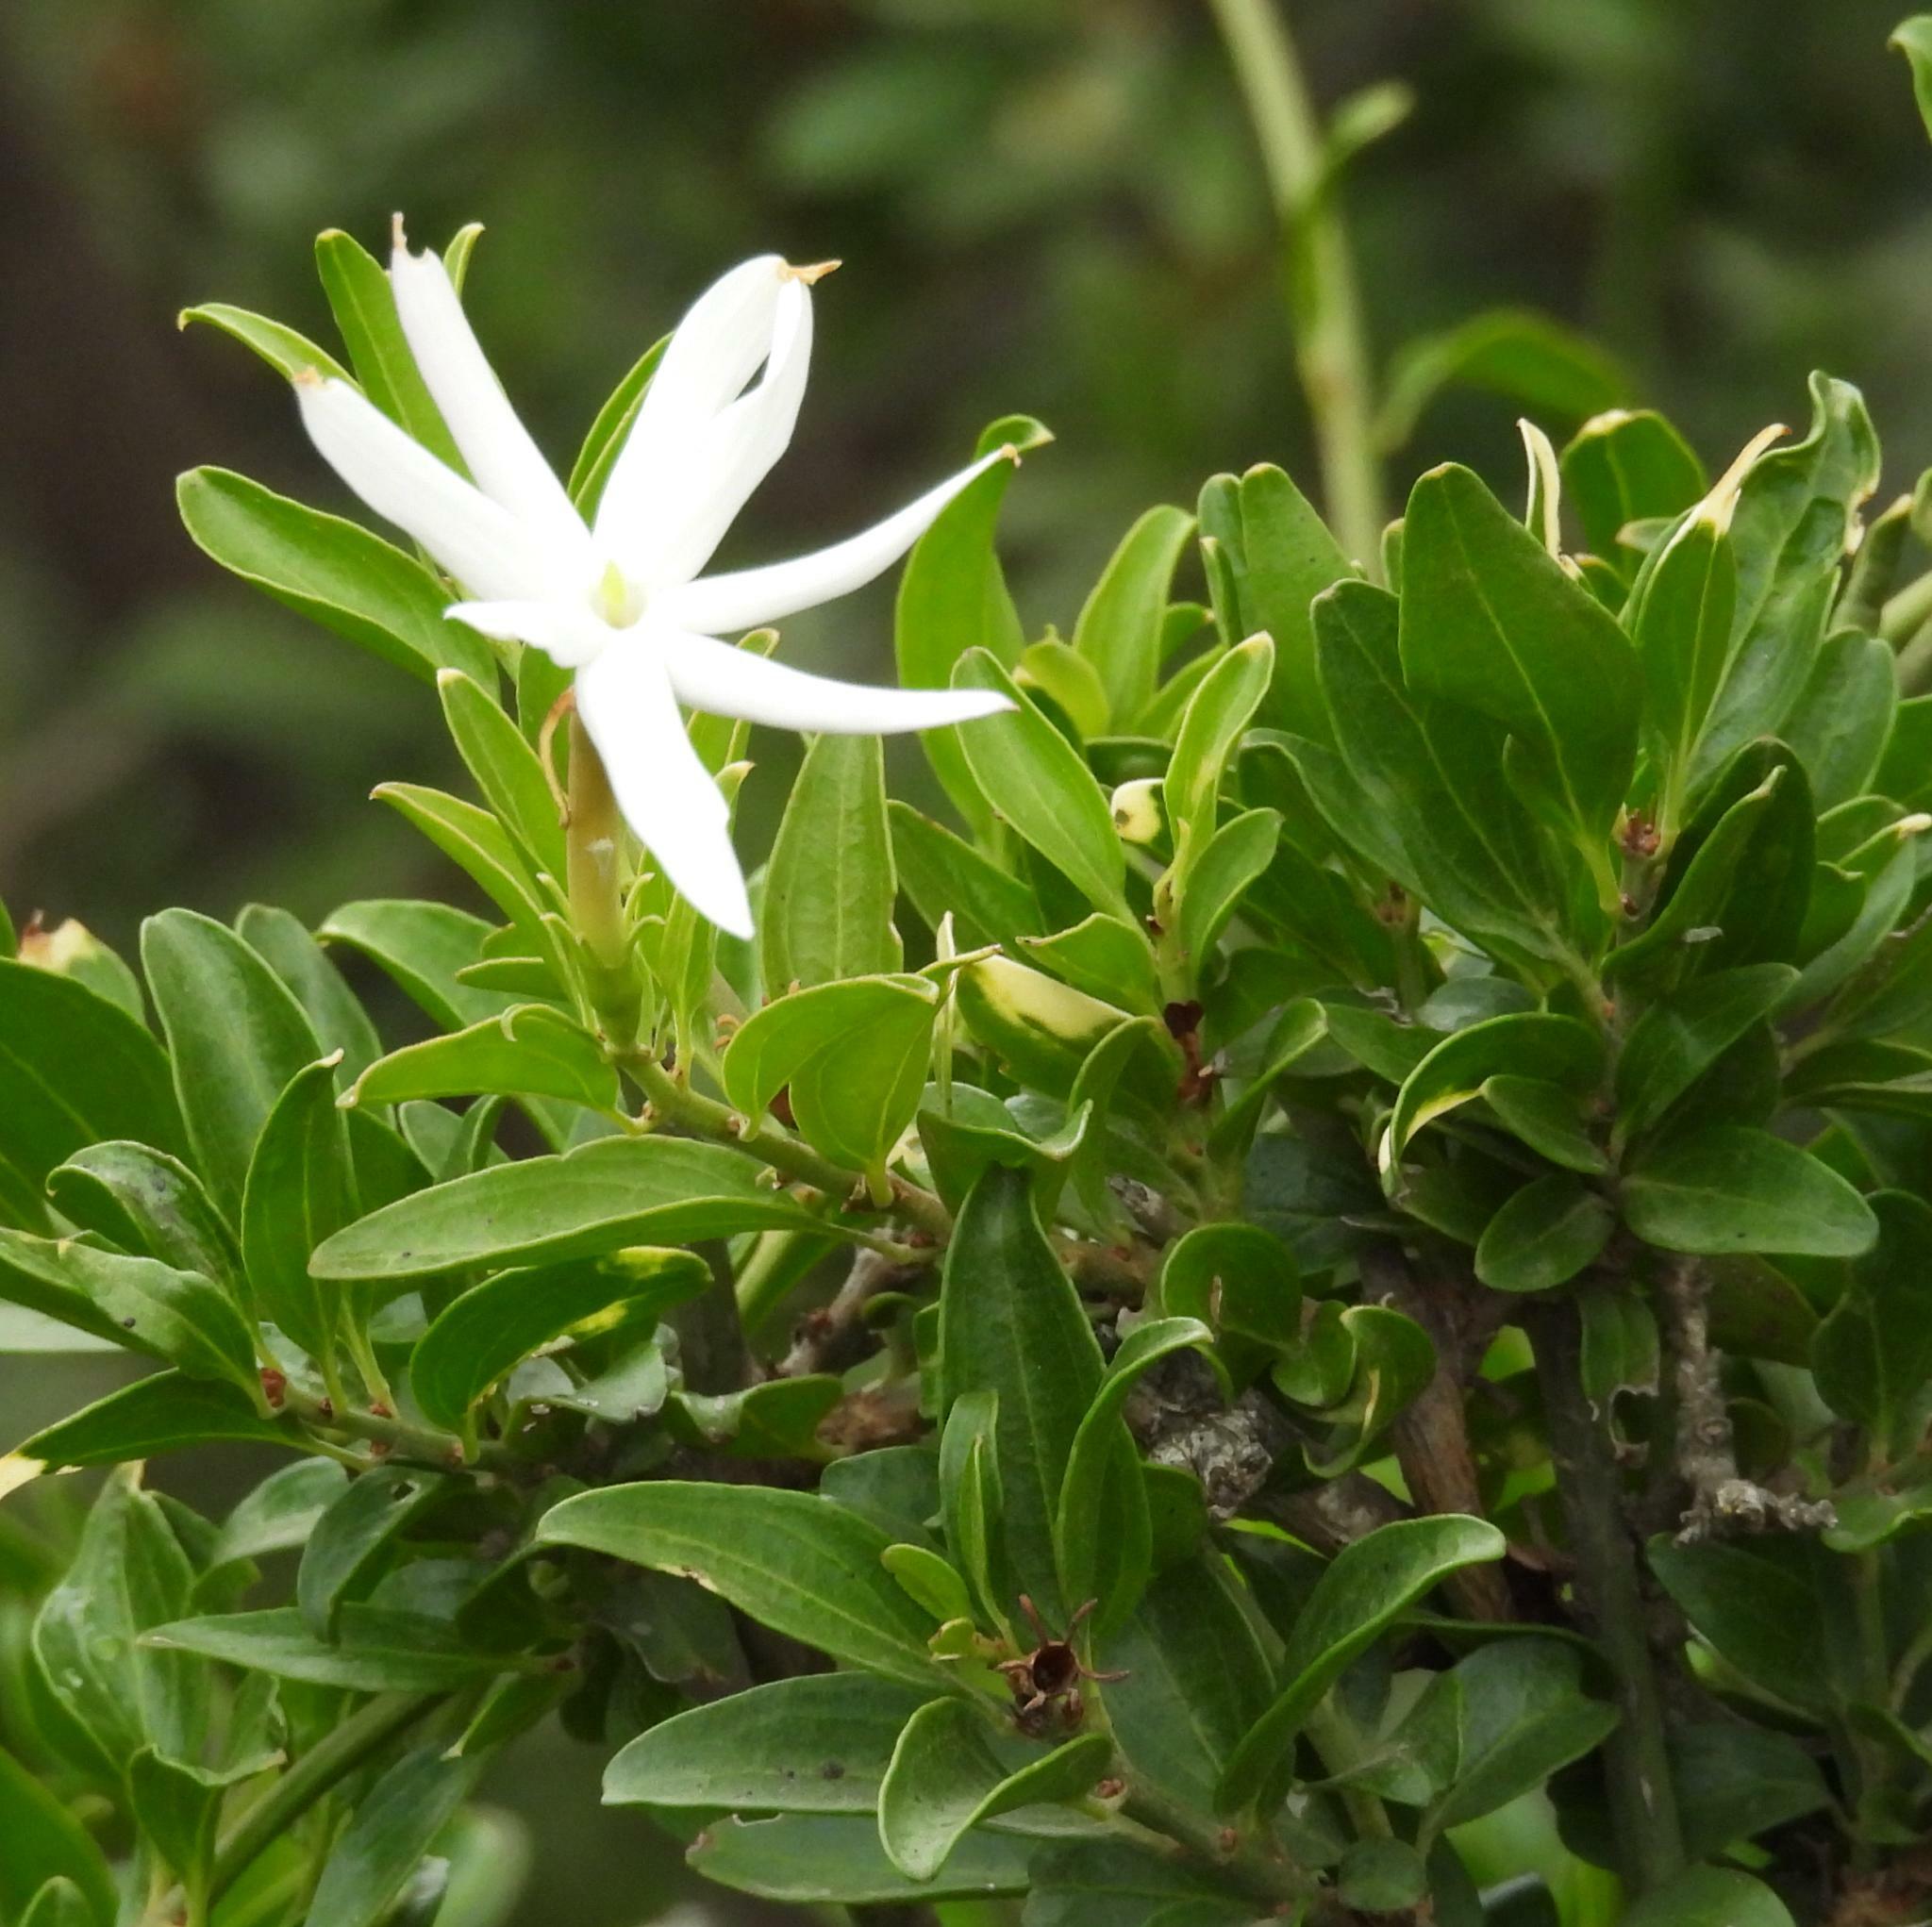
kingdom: Plantae
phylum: Tracheophyta
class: Magnoliopsida
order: Lamiales
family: Oleaceae
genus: Jasminum
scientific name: Jasminum multipartitum
